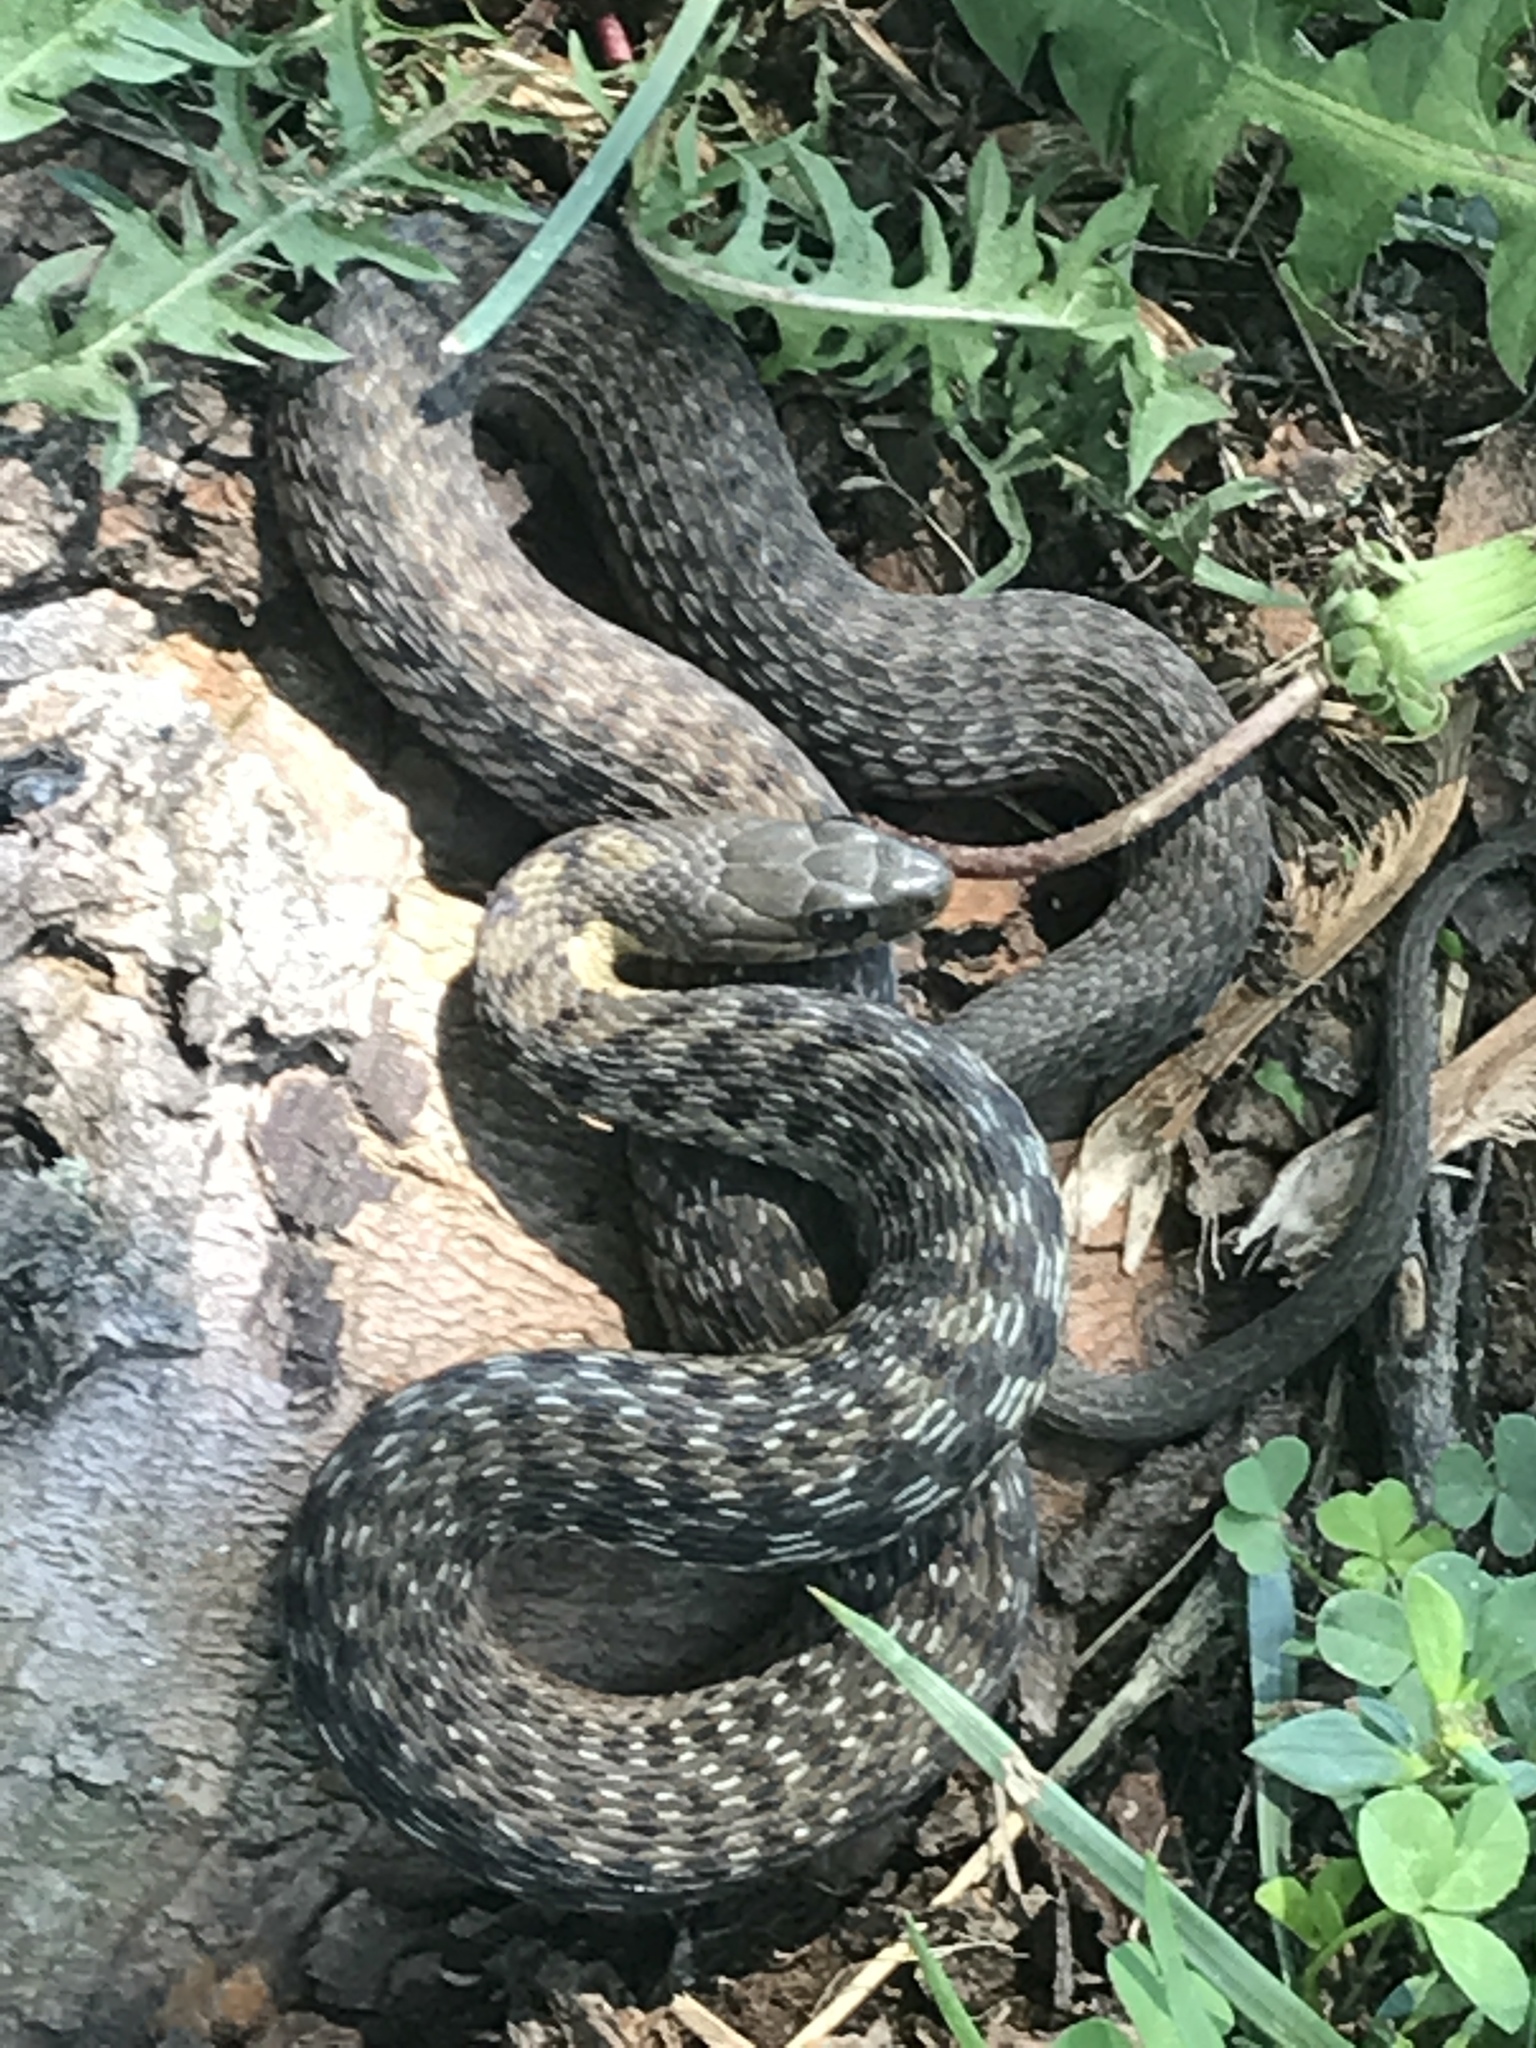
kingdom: Animalia
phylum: Chordata
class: Squamata
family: Colubridae
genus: Thamnophis
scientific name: Thamnophis sirtalis
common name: Common garter snake
